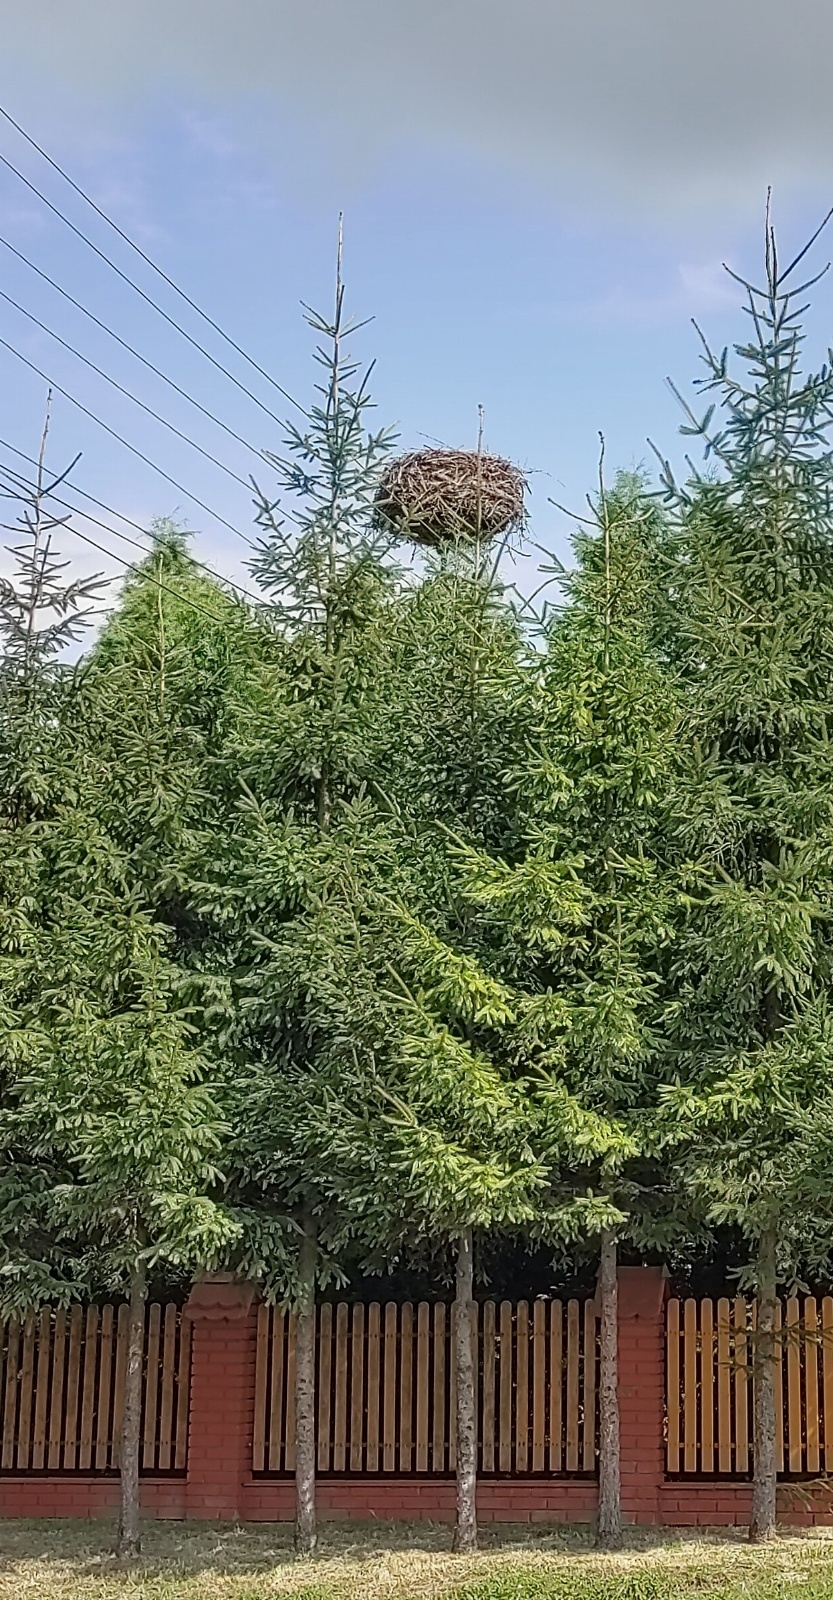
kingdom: Animalia
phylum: Chordata
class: Aves
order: Ciconiiformes
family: Ciconiidae
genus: Ciconia
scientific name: Ciconia ciconia
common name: White stork
